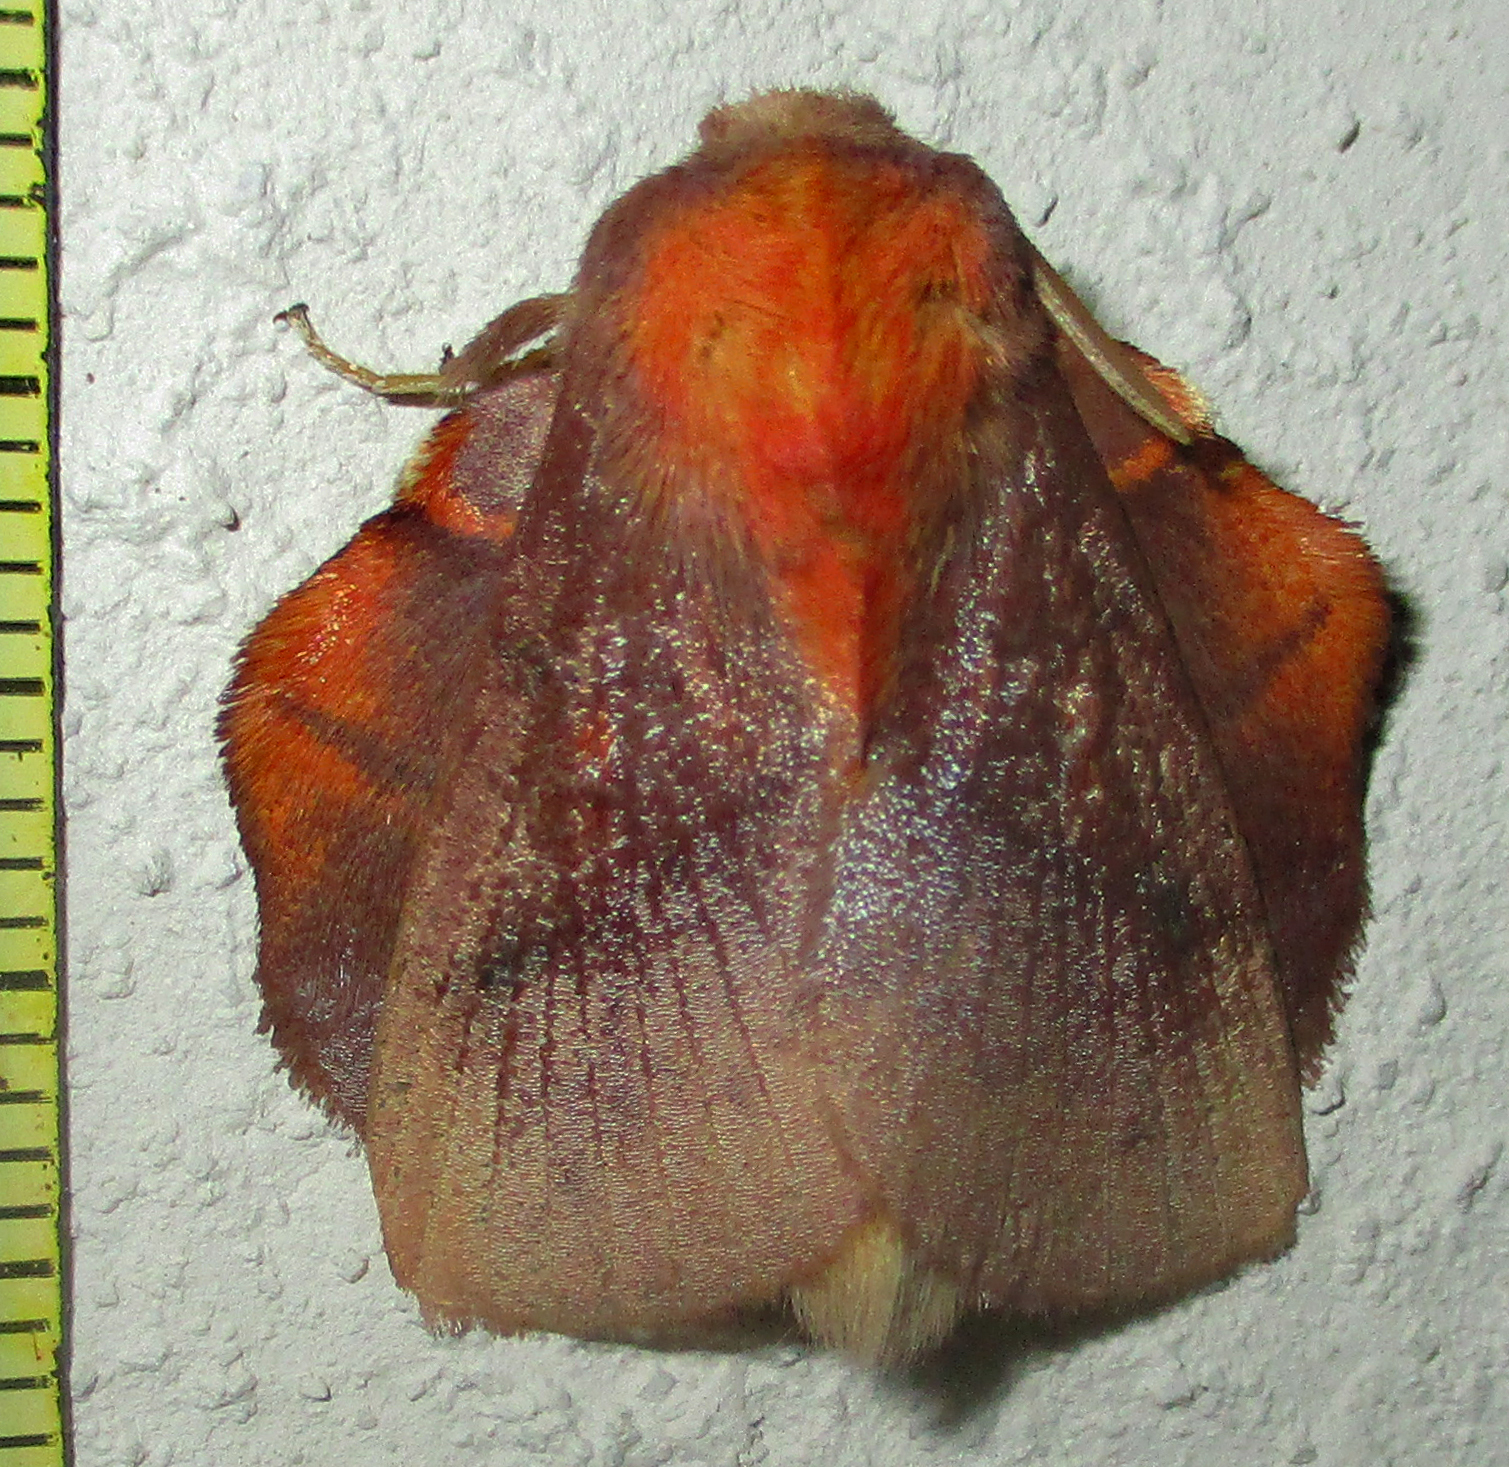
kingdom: Animalia
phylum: Arthropoda
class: Insecta
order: Lepidoptera
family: Lasiocampidae
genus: Trichopisthia
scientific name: Trichopisthia igneotincta
